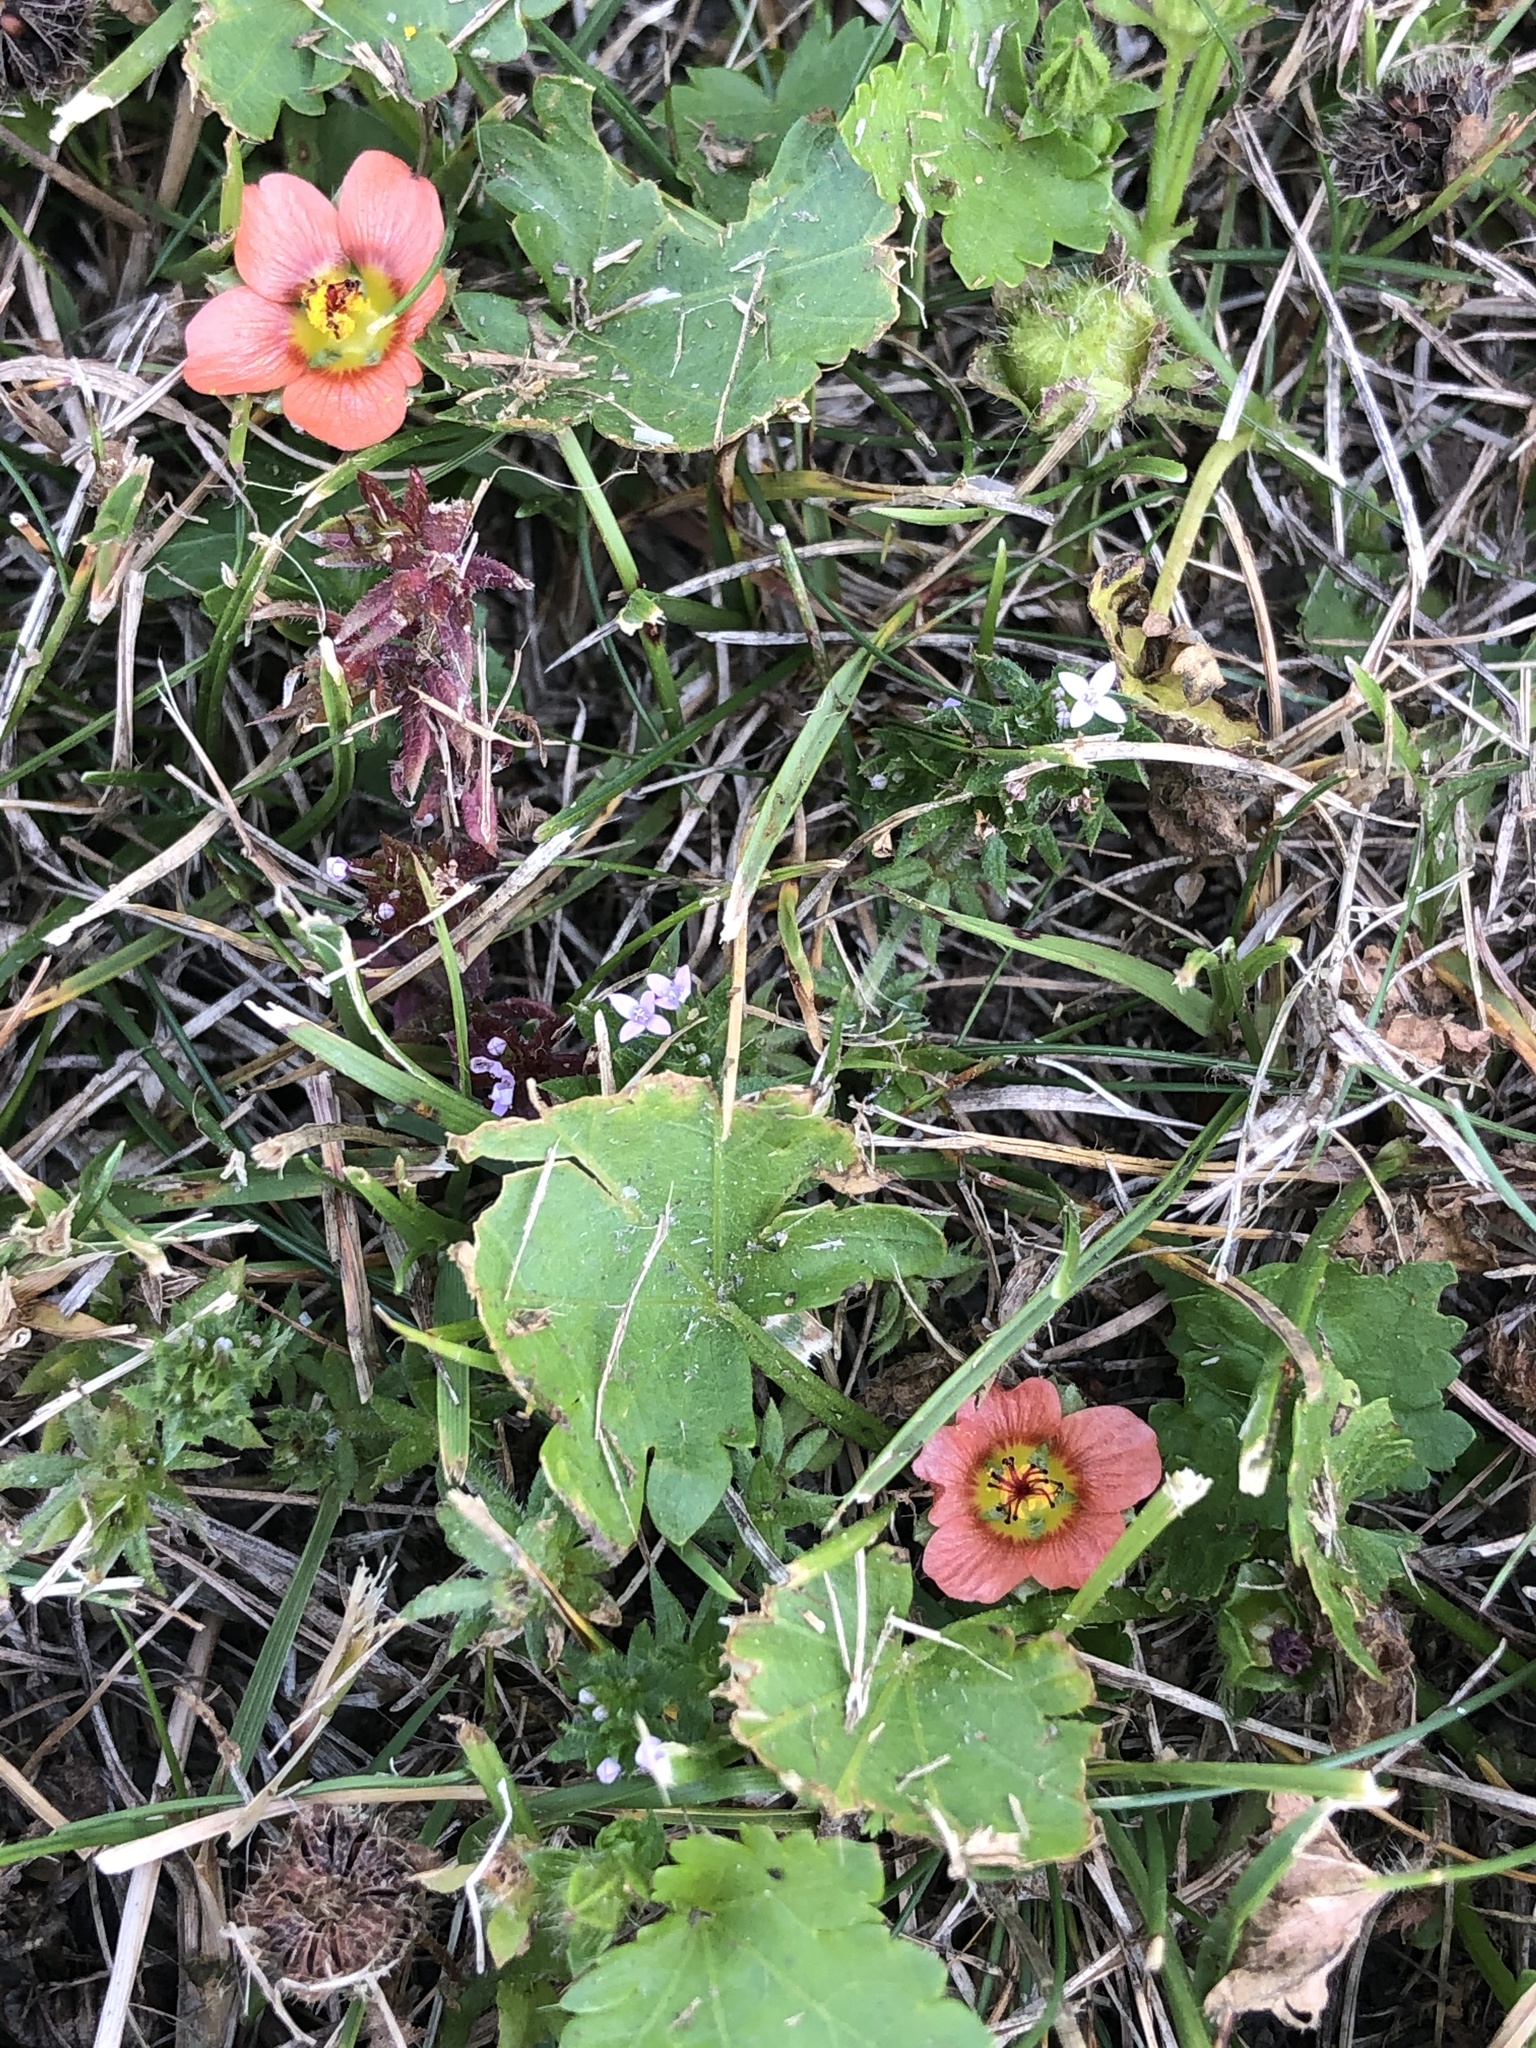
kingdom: Plantae
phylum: Tracheophyta
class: Magnoliopsida
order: Malvales
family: Malvaceae
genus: Modiola
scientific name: Modiola caroliniana
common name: Carolina bristlemallow
